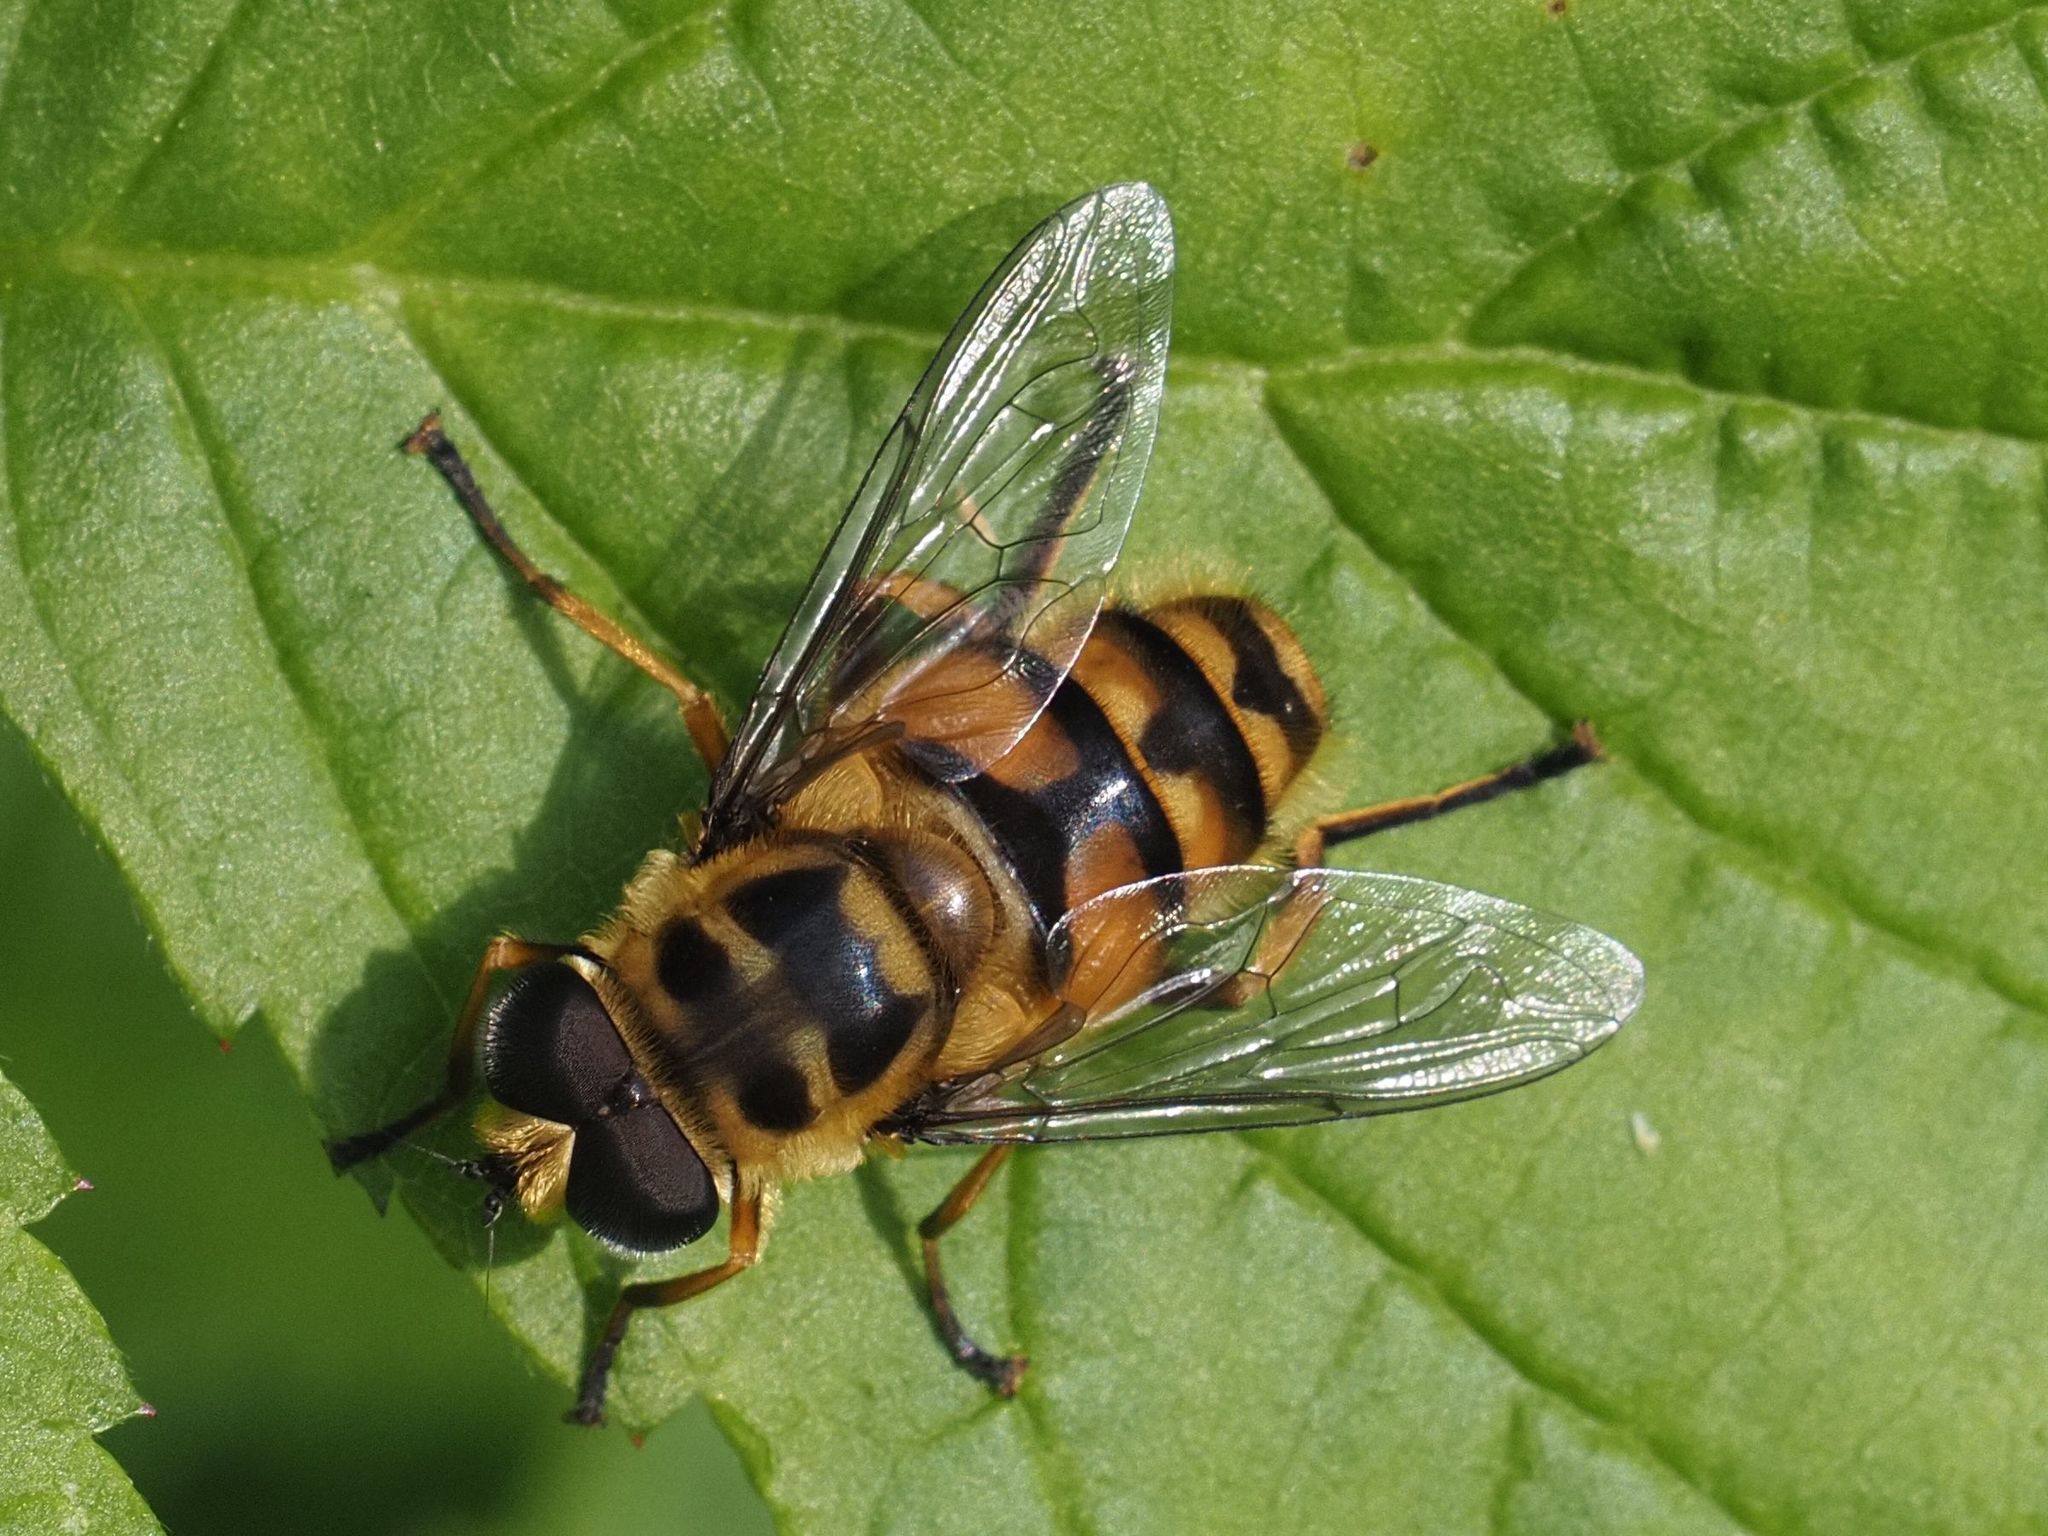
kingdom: Animalia
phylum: Arthropoda
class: Insecta
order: Diptera
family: Syrphidae
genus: Myathropa
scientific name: Myathropa florea
